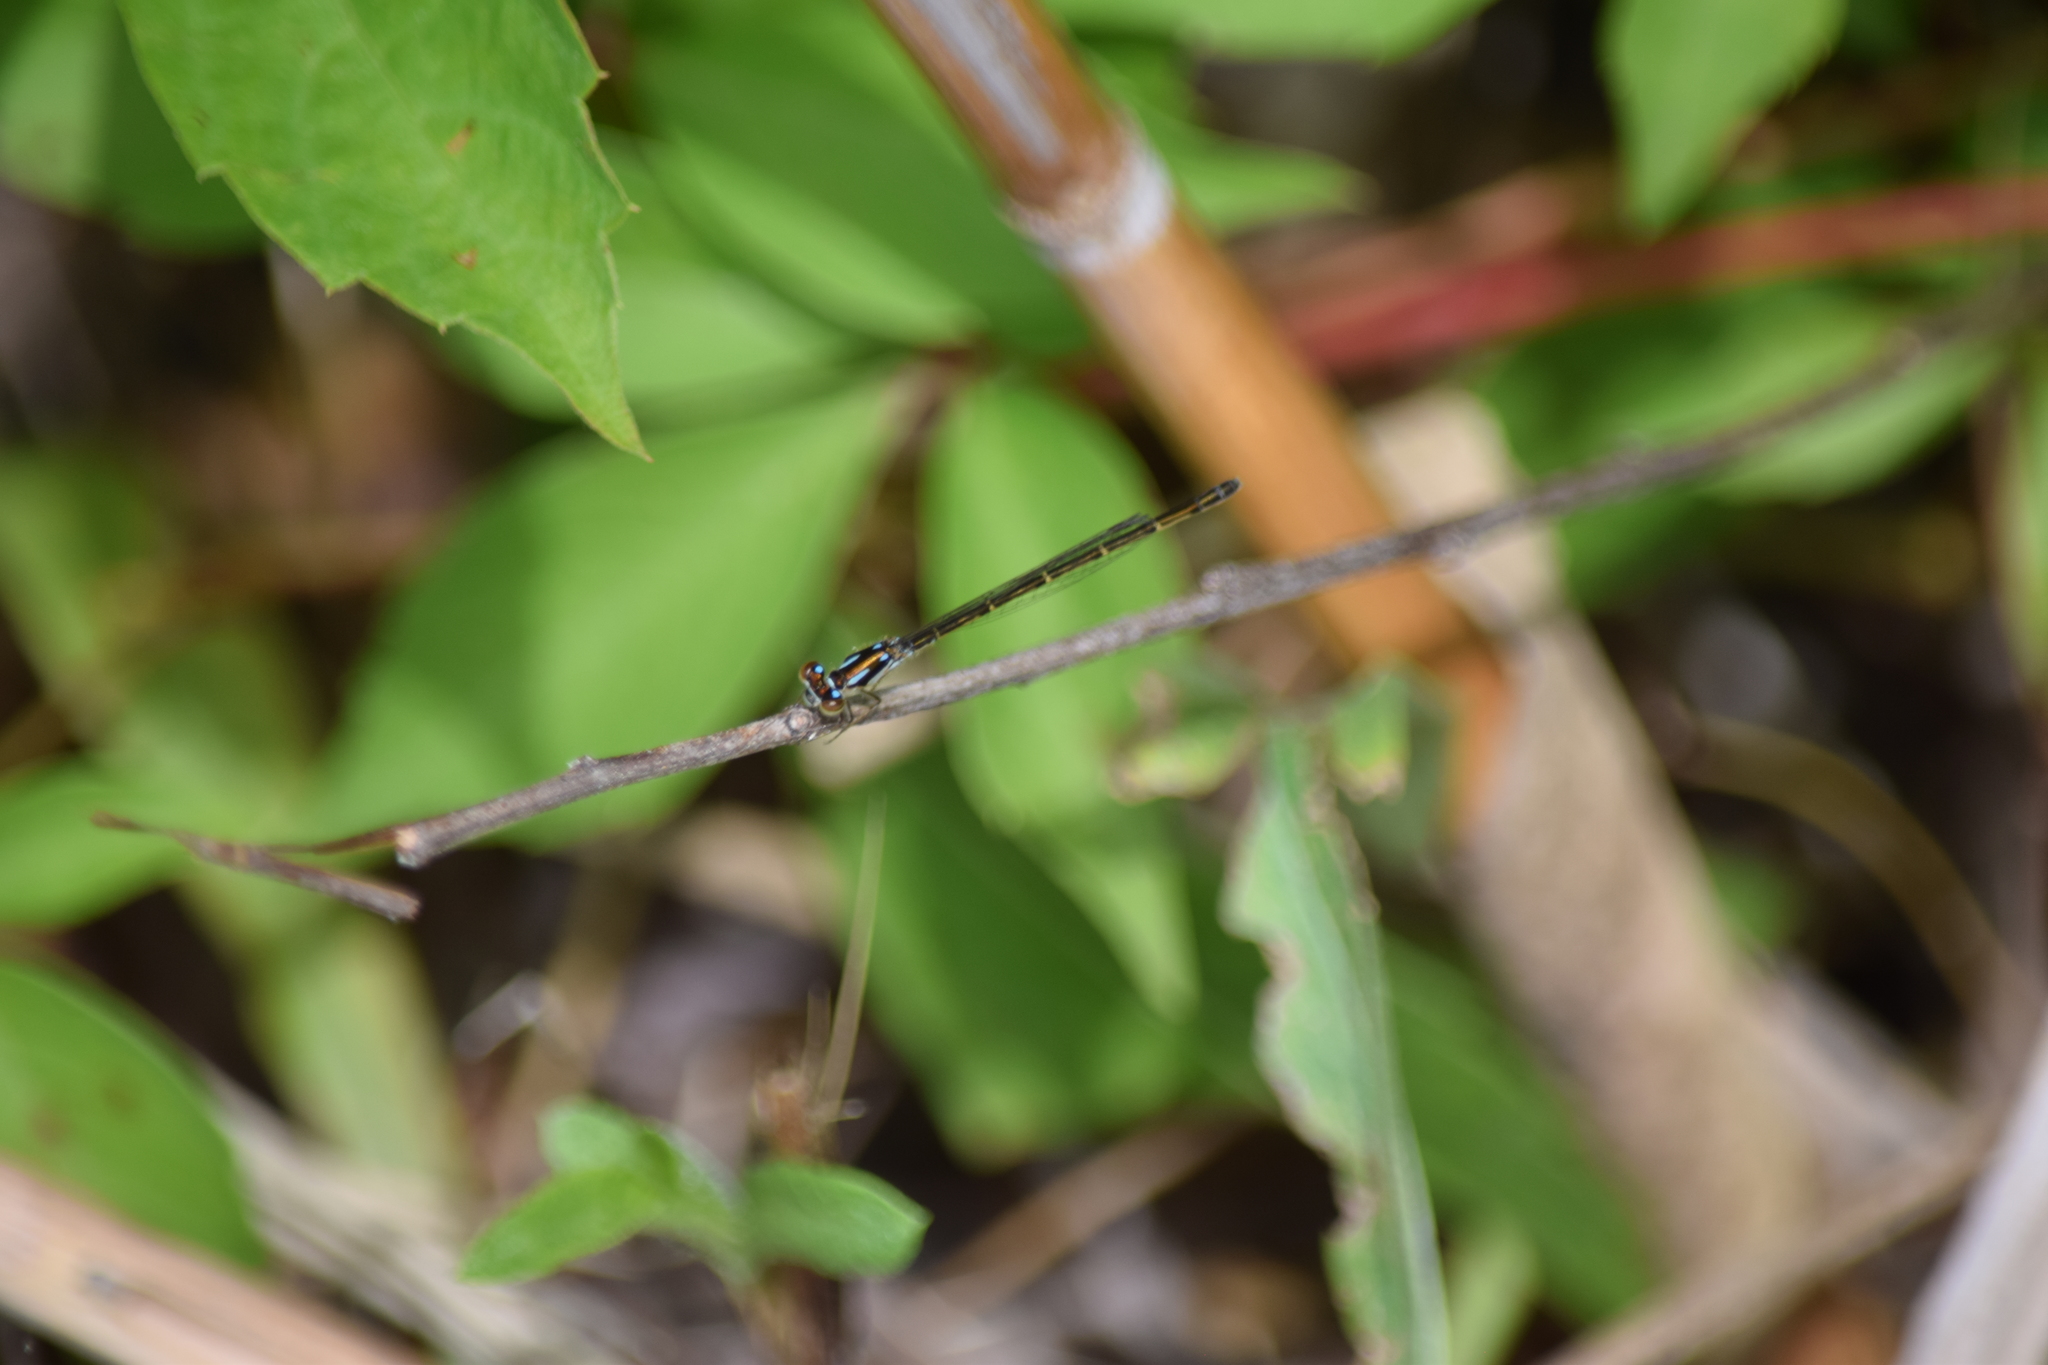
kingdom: Animalia
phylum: Arthropoda
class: Insecta
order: Odonata
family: Coenagrionidae
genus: Ischnura
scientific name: Ischnura posita
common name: Fragile forktail
